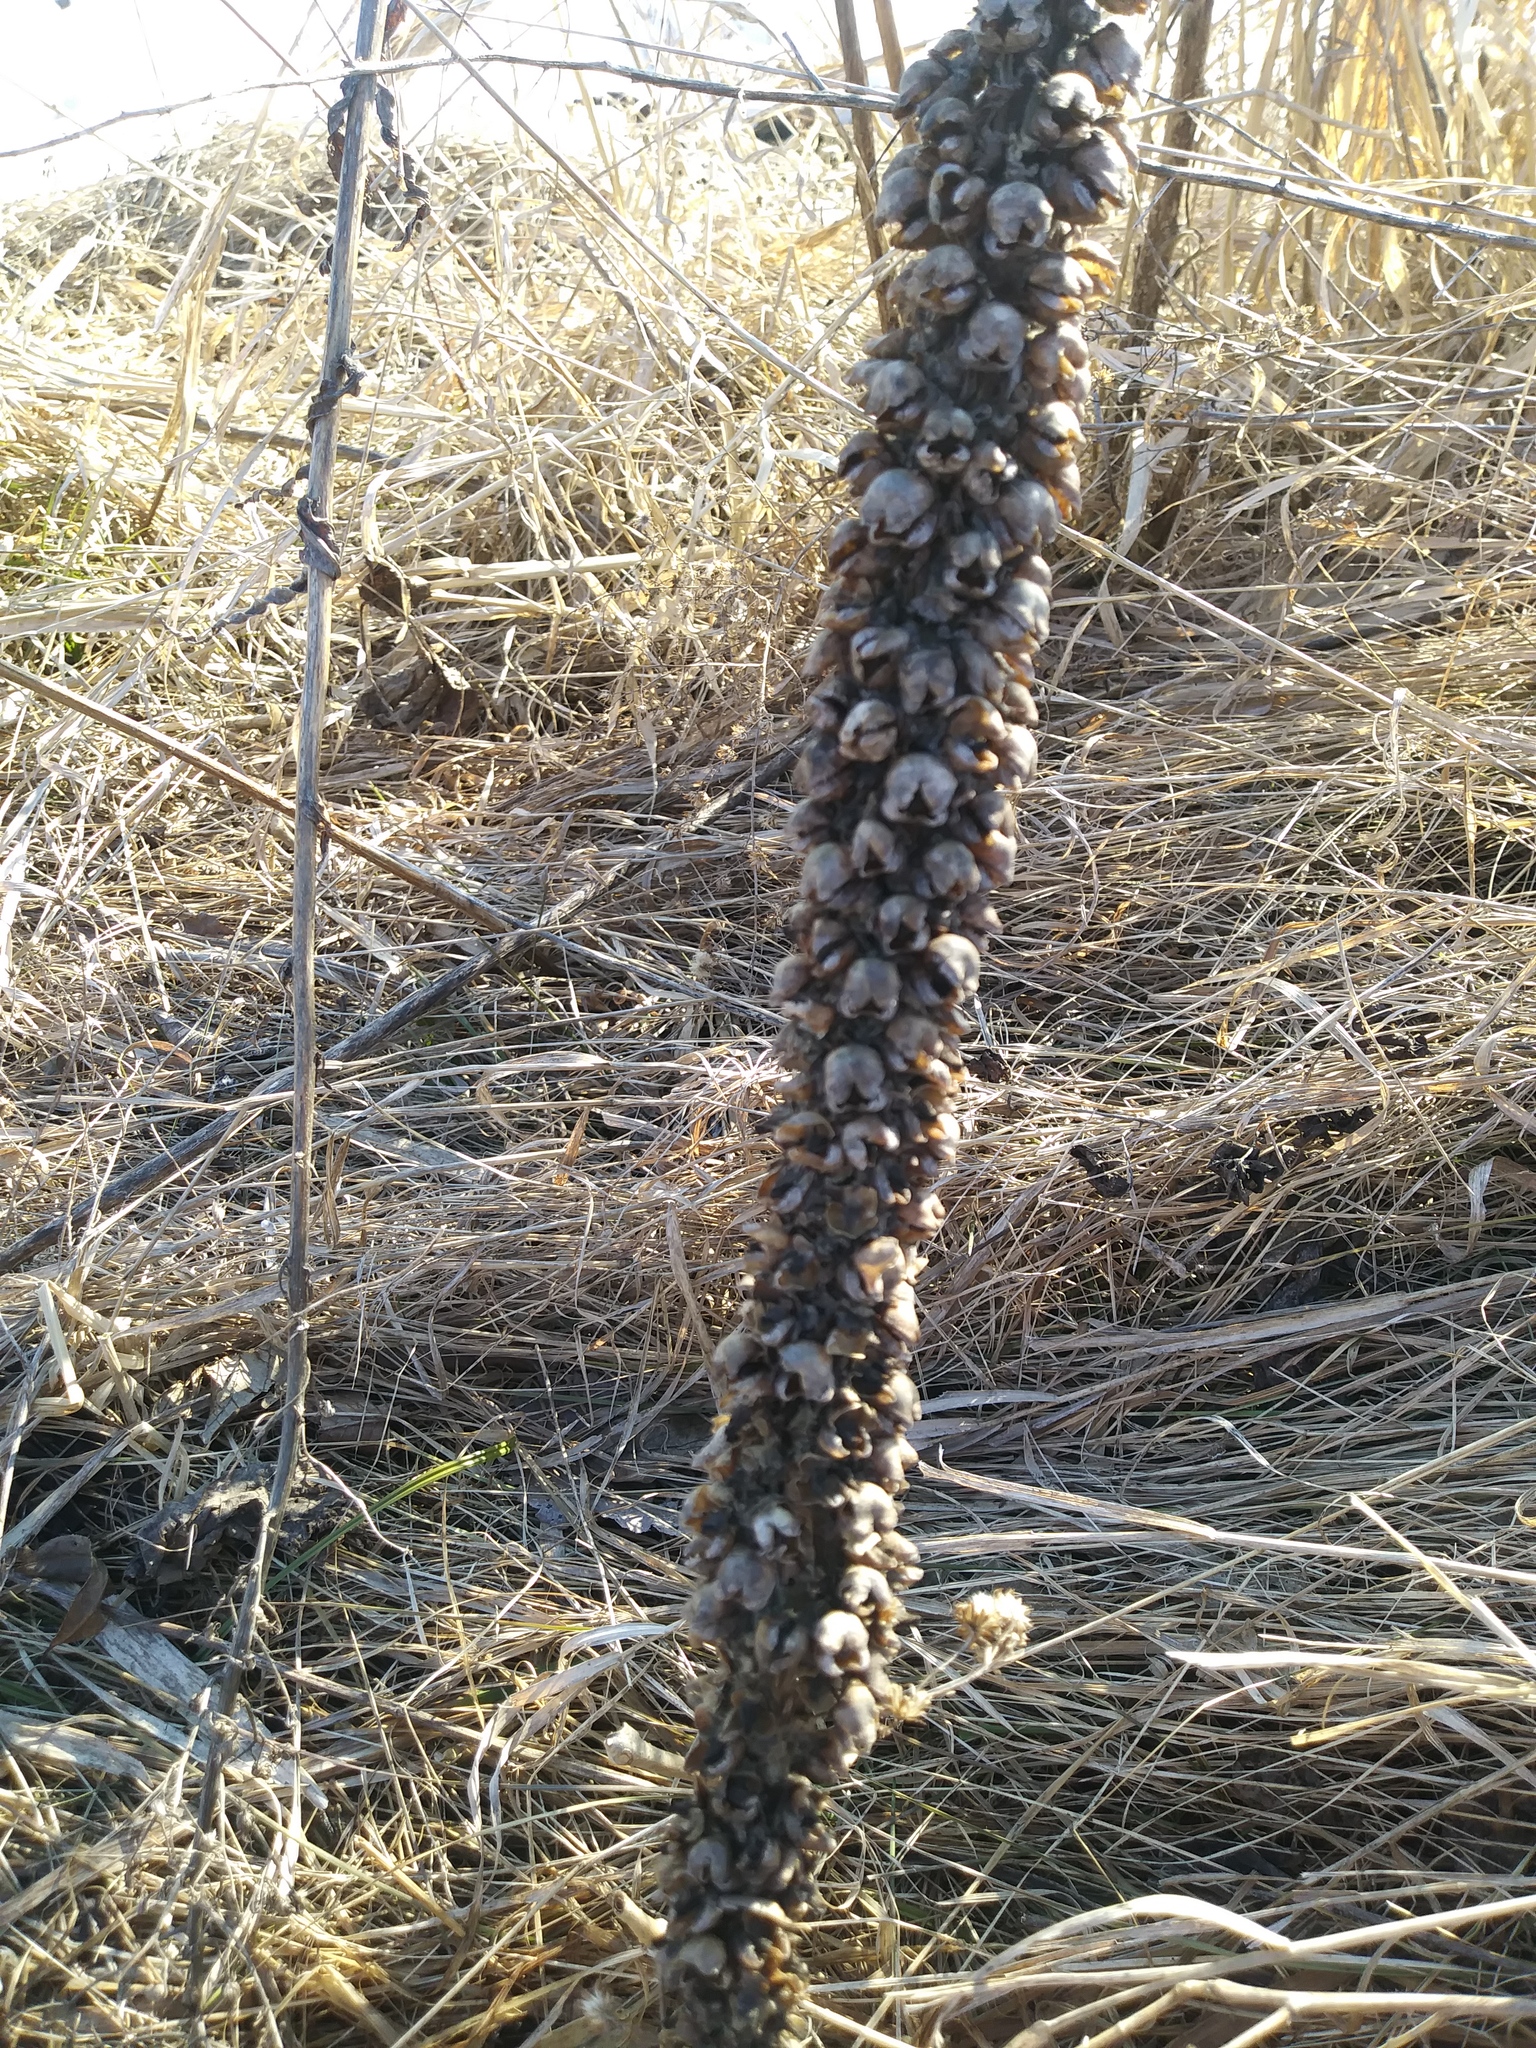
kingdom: Plantae
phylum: Tracheophyta
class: Magnoliopsida
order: Lamiales
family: Scrophulariaceae
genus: Verbascum
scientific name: Verbascum thapsus
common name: Common mullein
